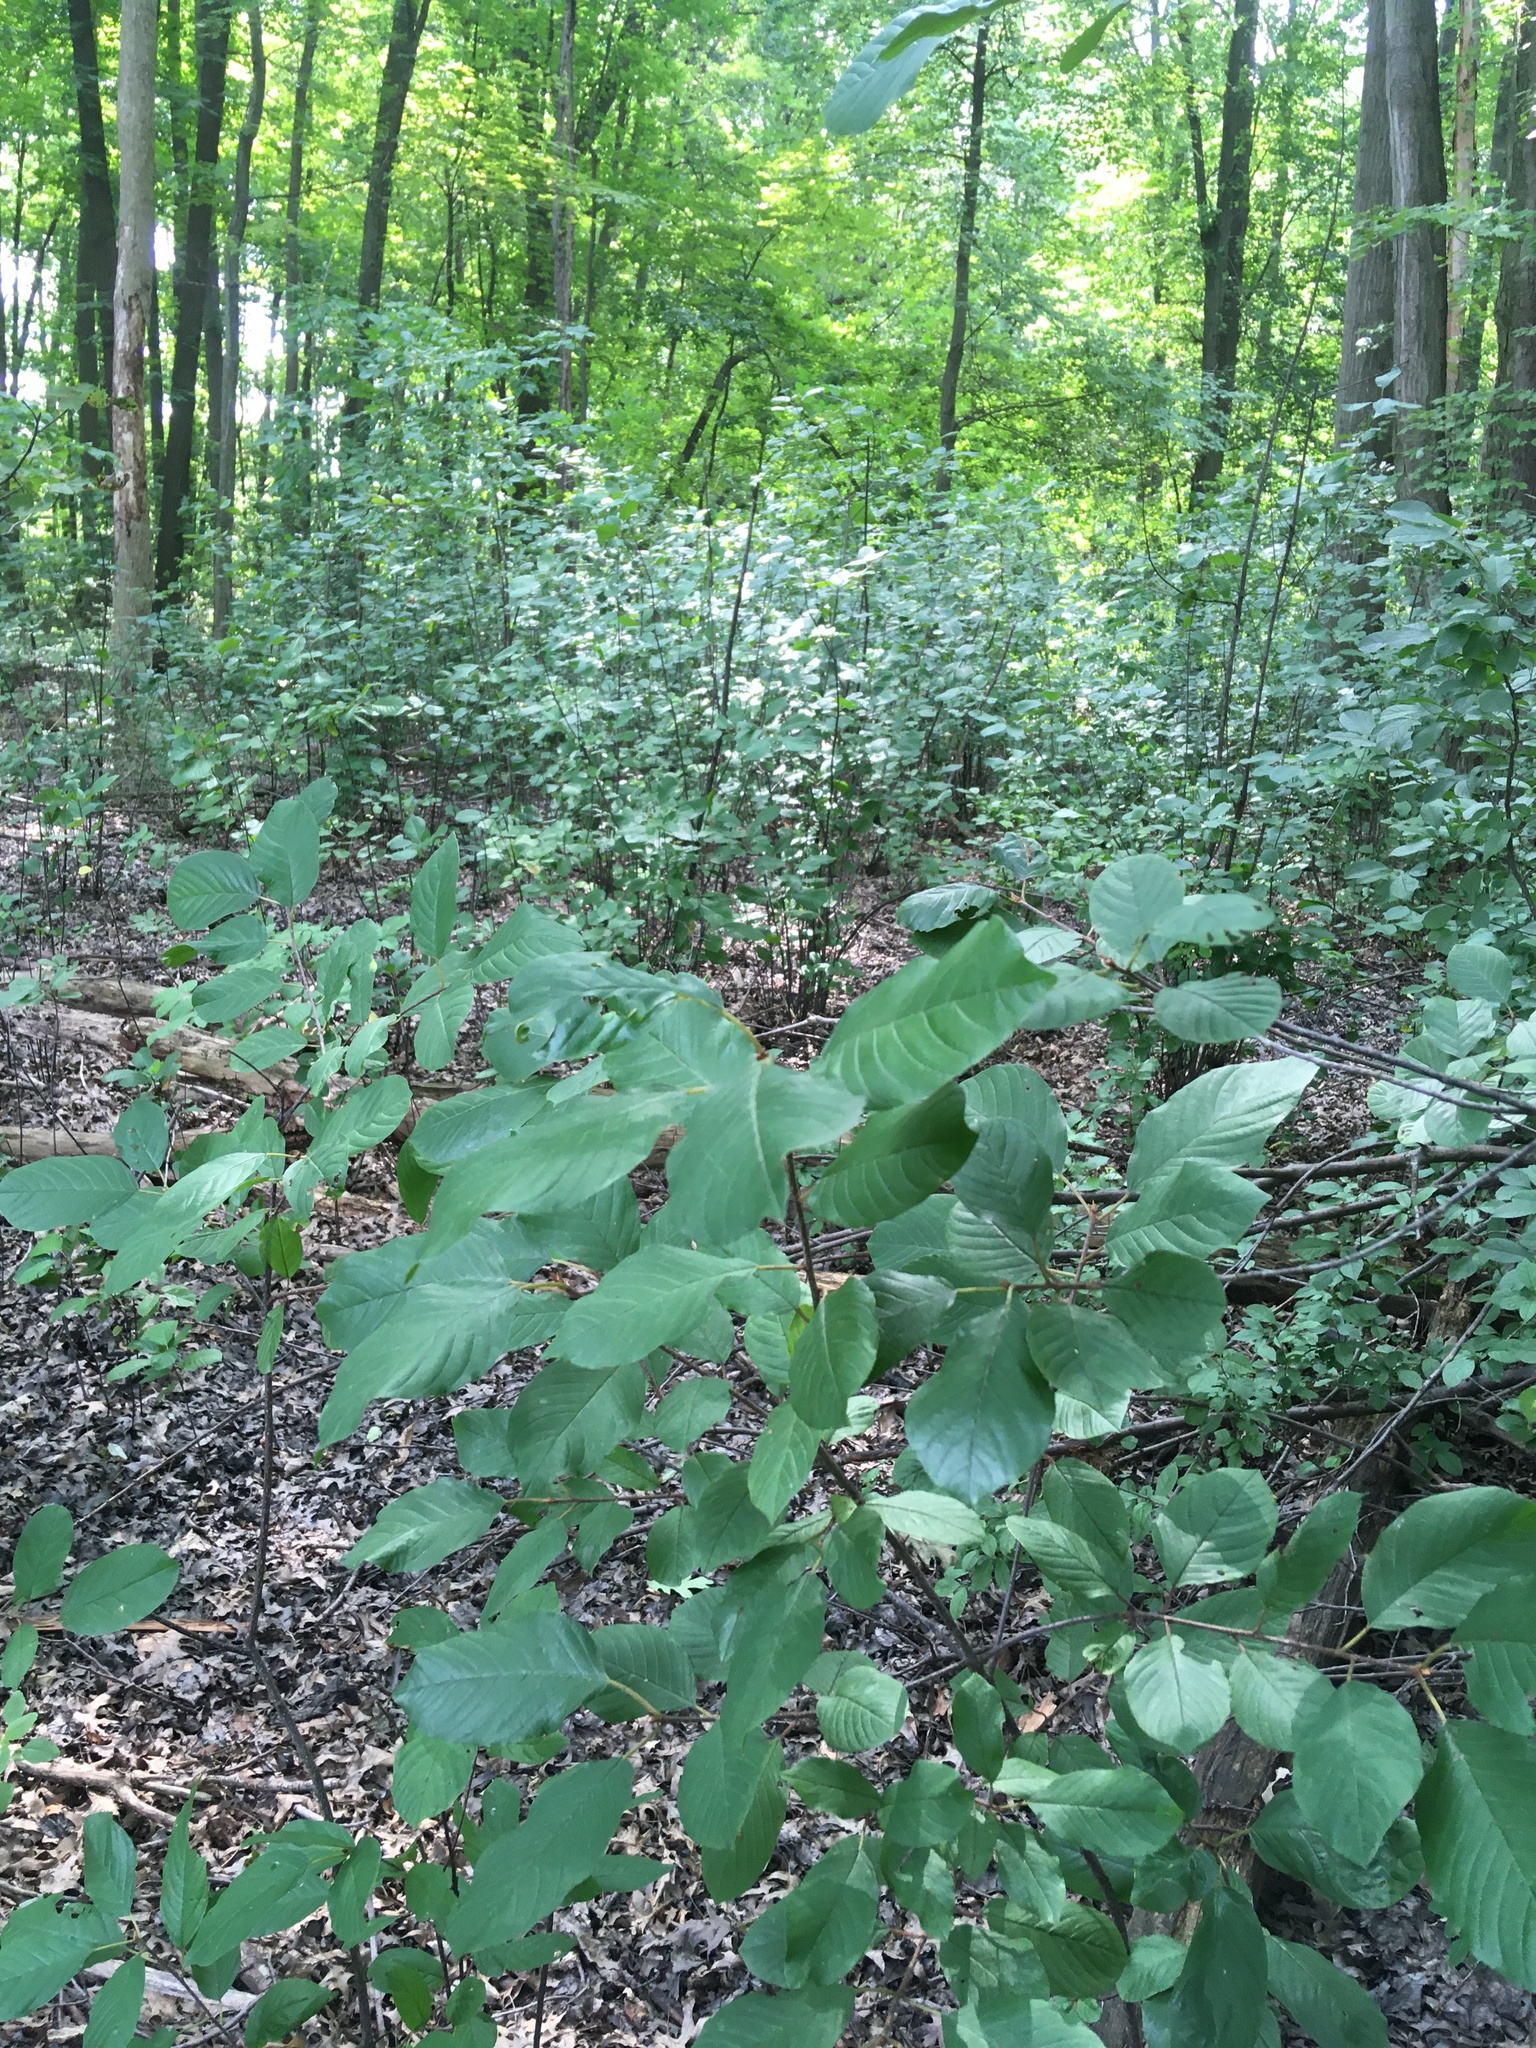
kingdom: Plantae
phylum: Tracheophyta
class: Magnoliopsida
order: Rosales
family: Rhamnaceae
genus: Frangula
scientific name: Frangula alnus
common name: Alder buckthorn
